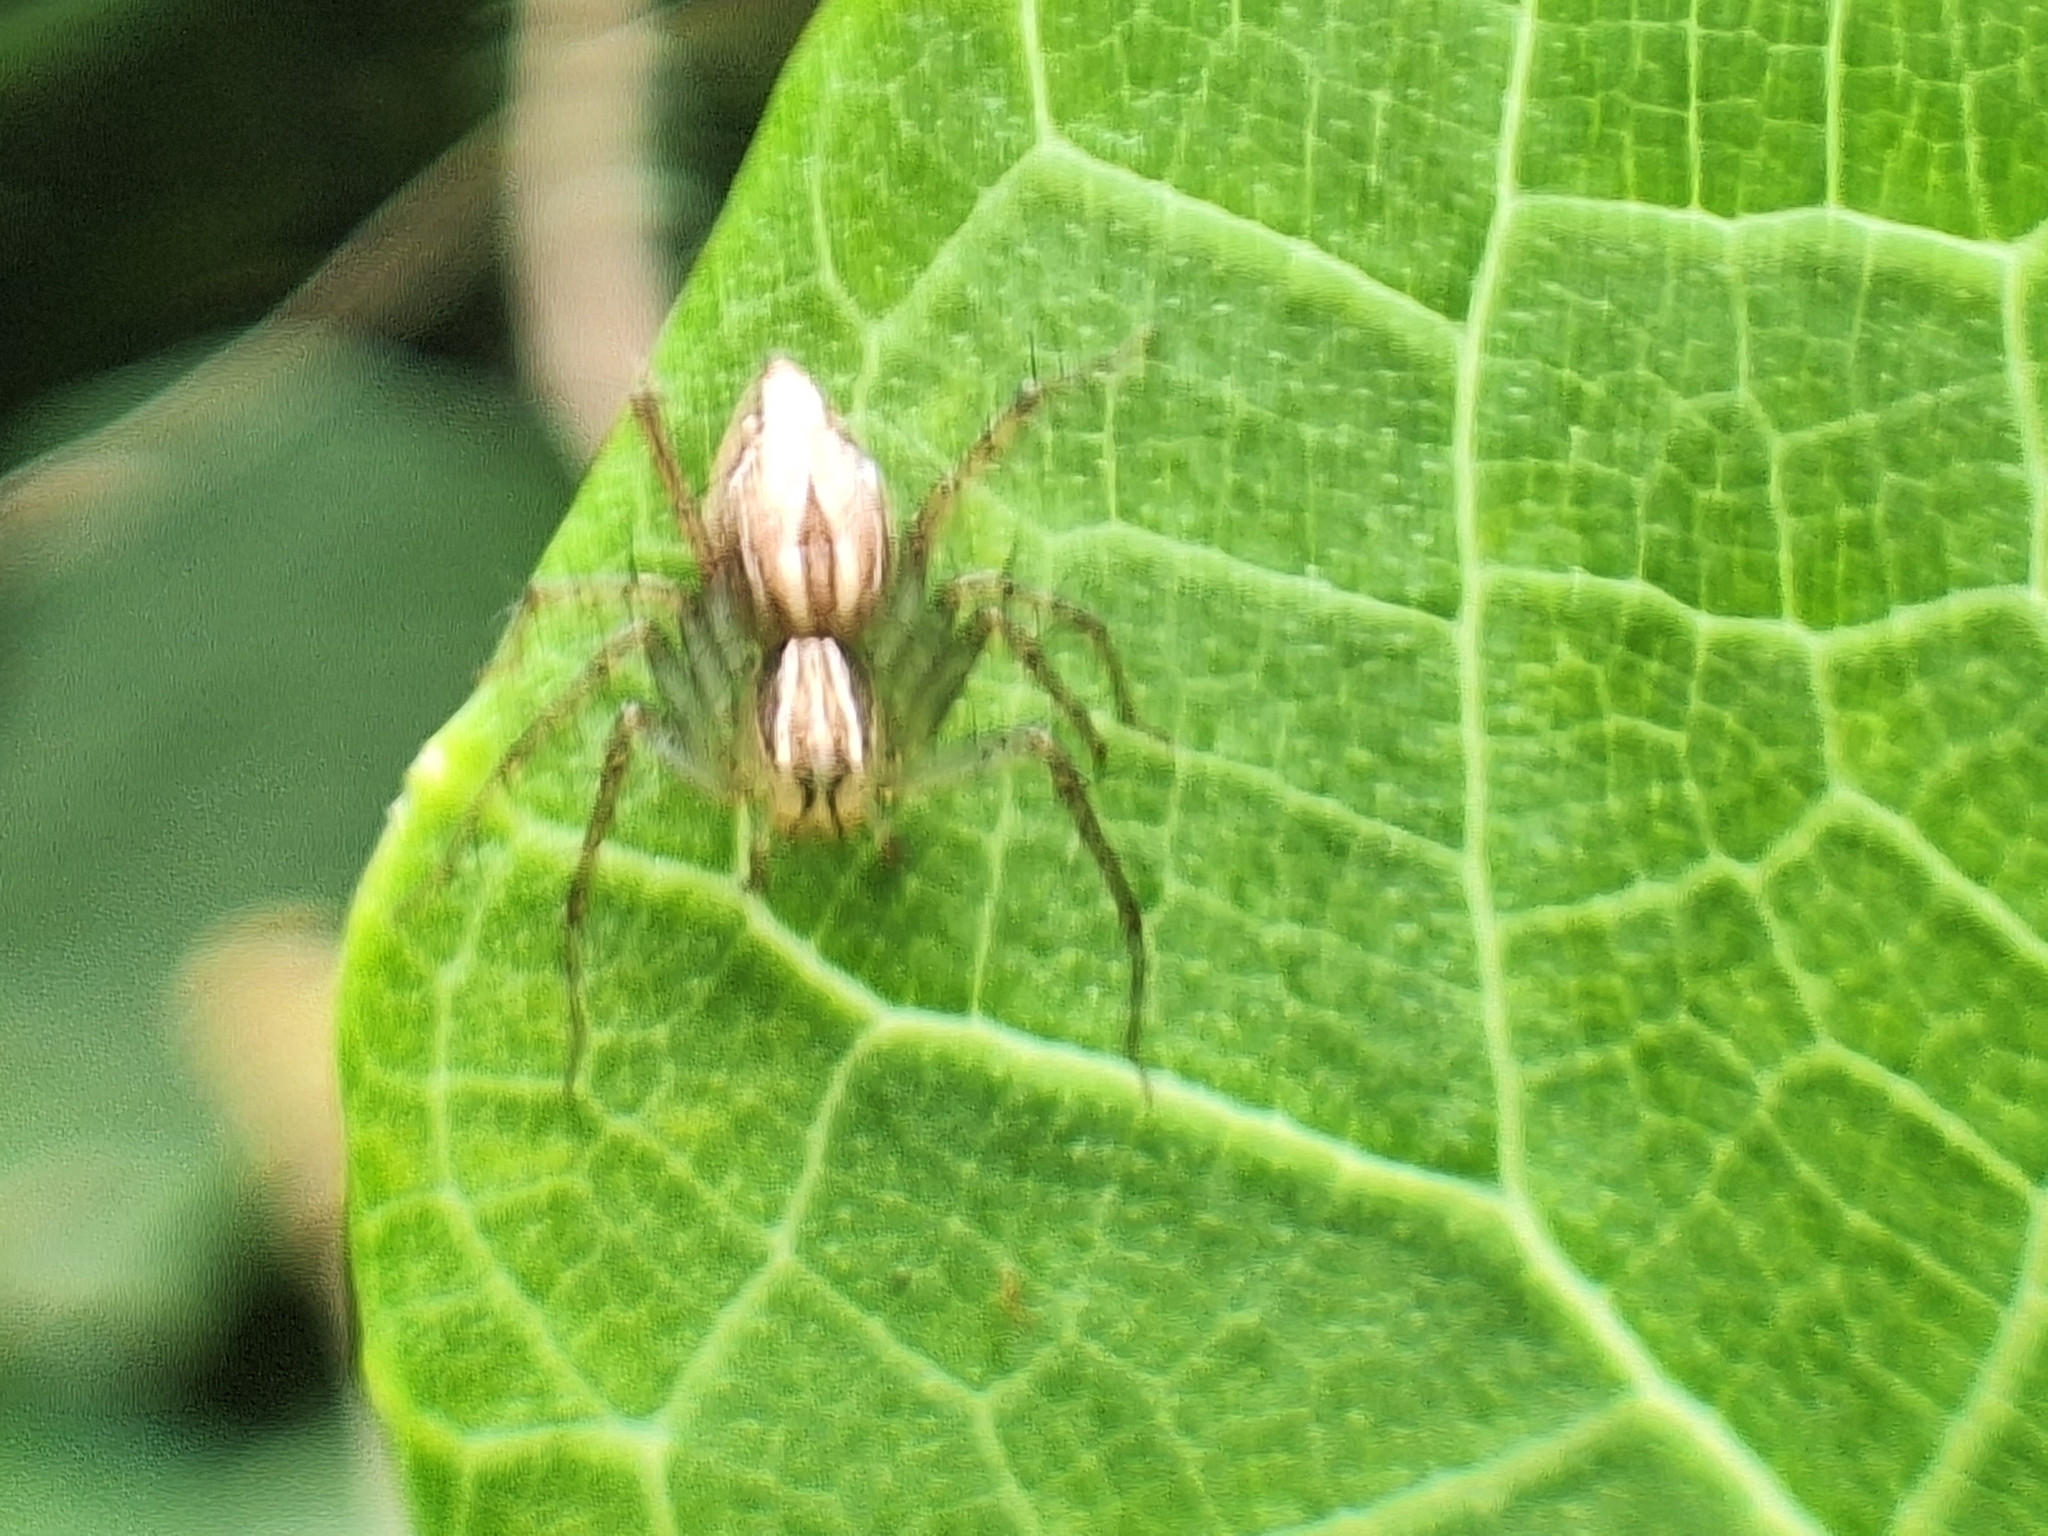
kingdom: Animalia
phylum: Arthropoda
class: Arachnida
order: Araneae
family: Oxyopidae
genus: Oxyopes
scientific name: Oxyopes salticus
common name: Lynx spiders
